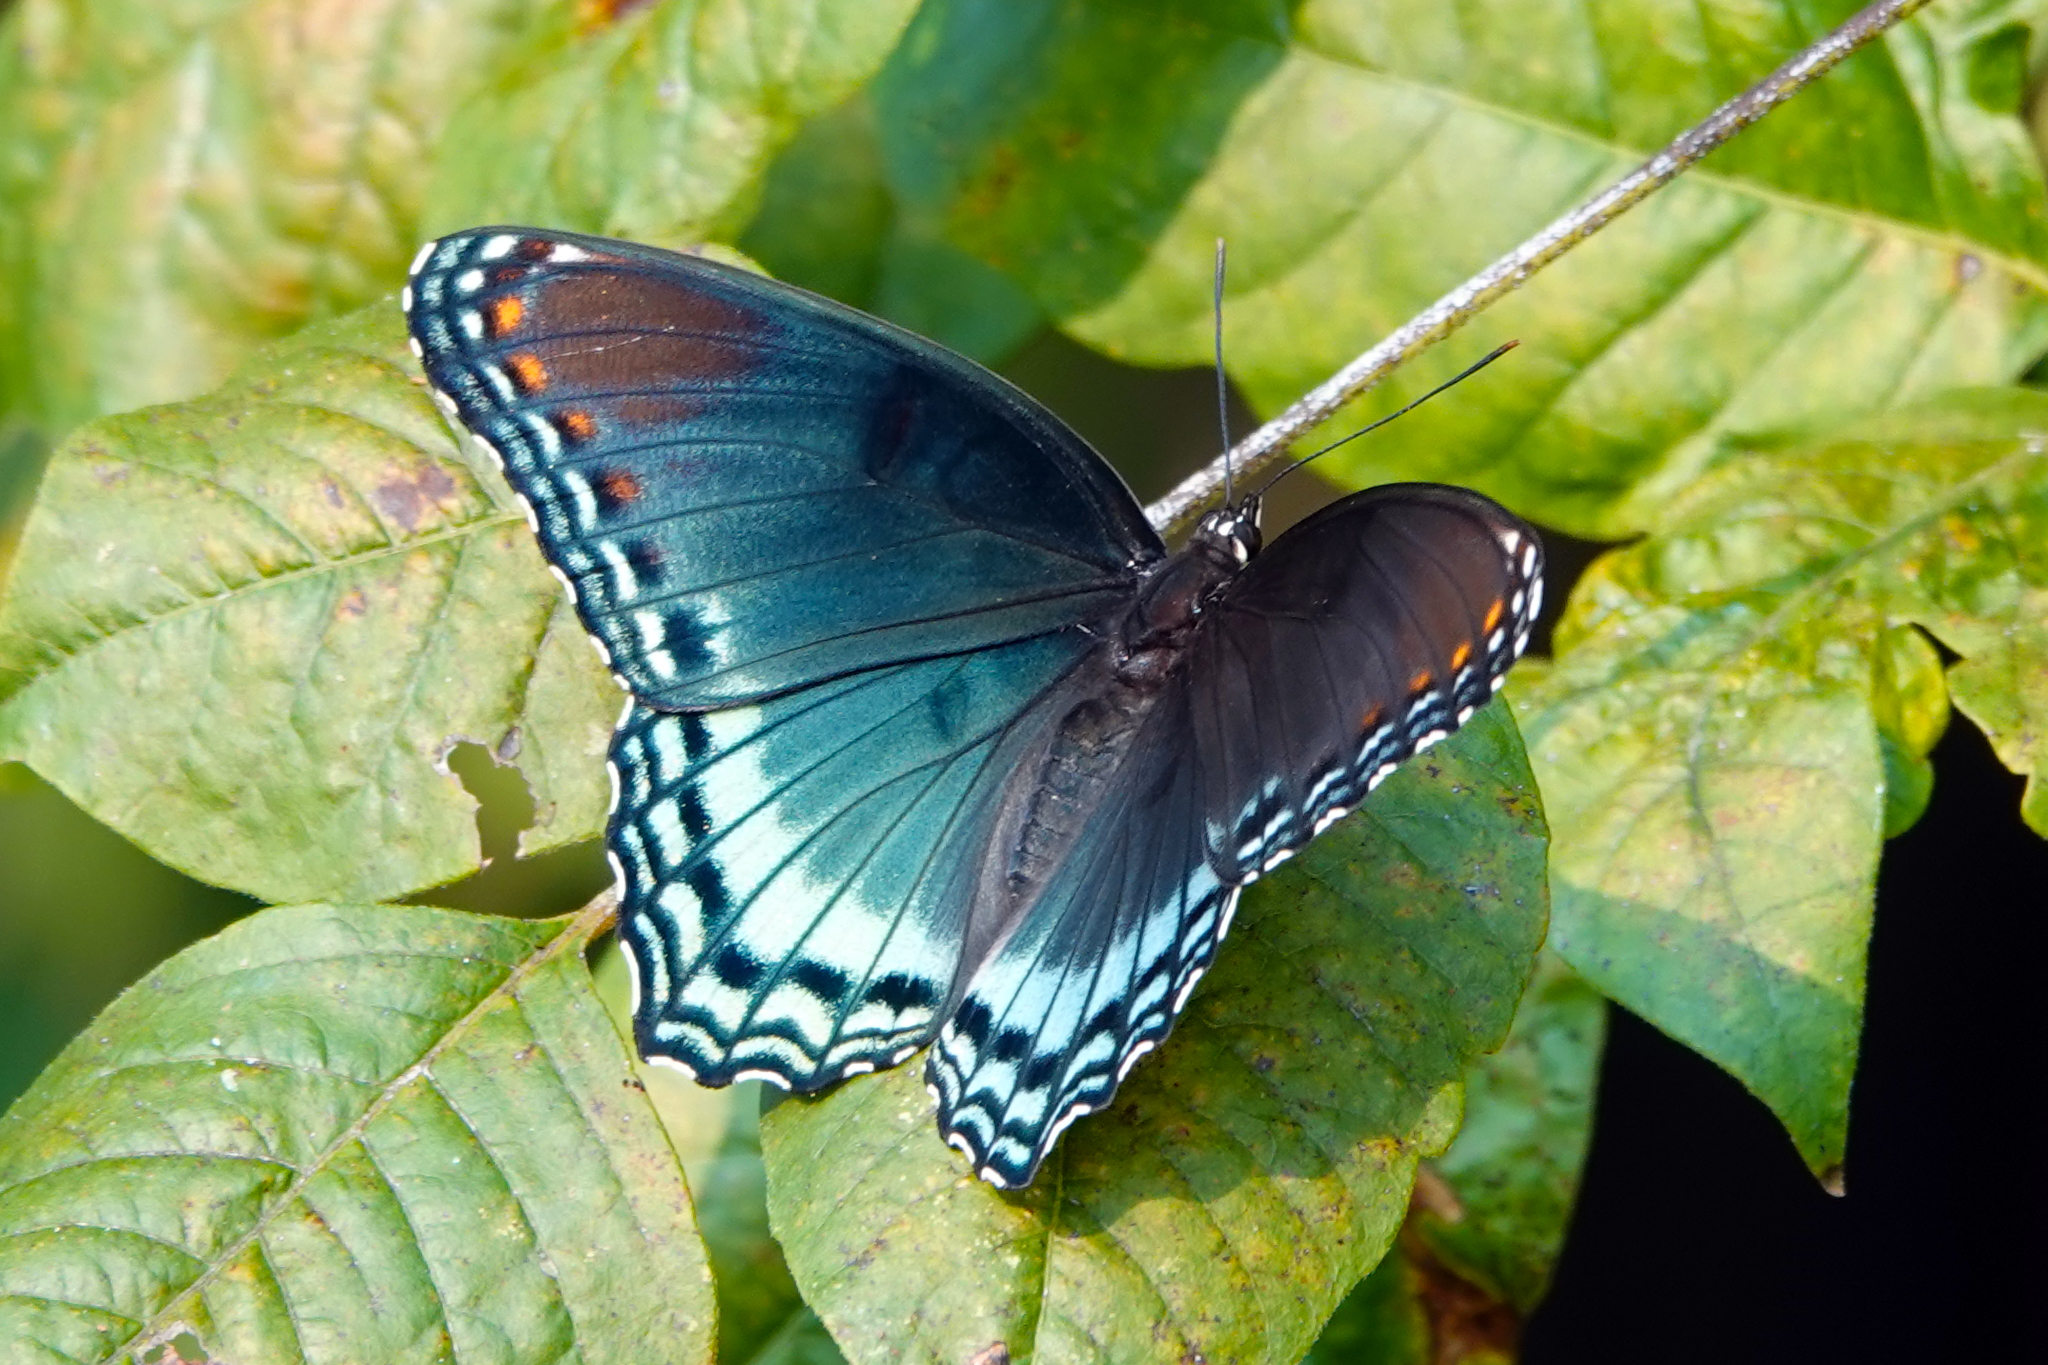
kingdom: Animalia
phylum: Arthropoda
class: Insecta
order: Lepidoptera
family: Nymphalidae
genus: Limenitis
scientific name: Limenitis astyanax
